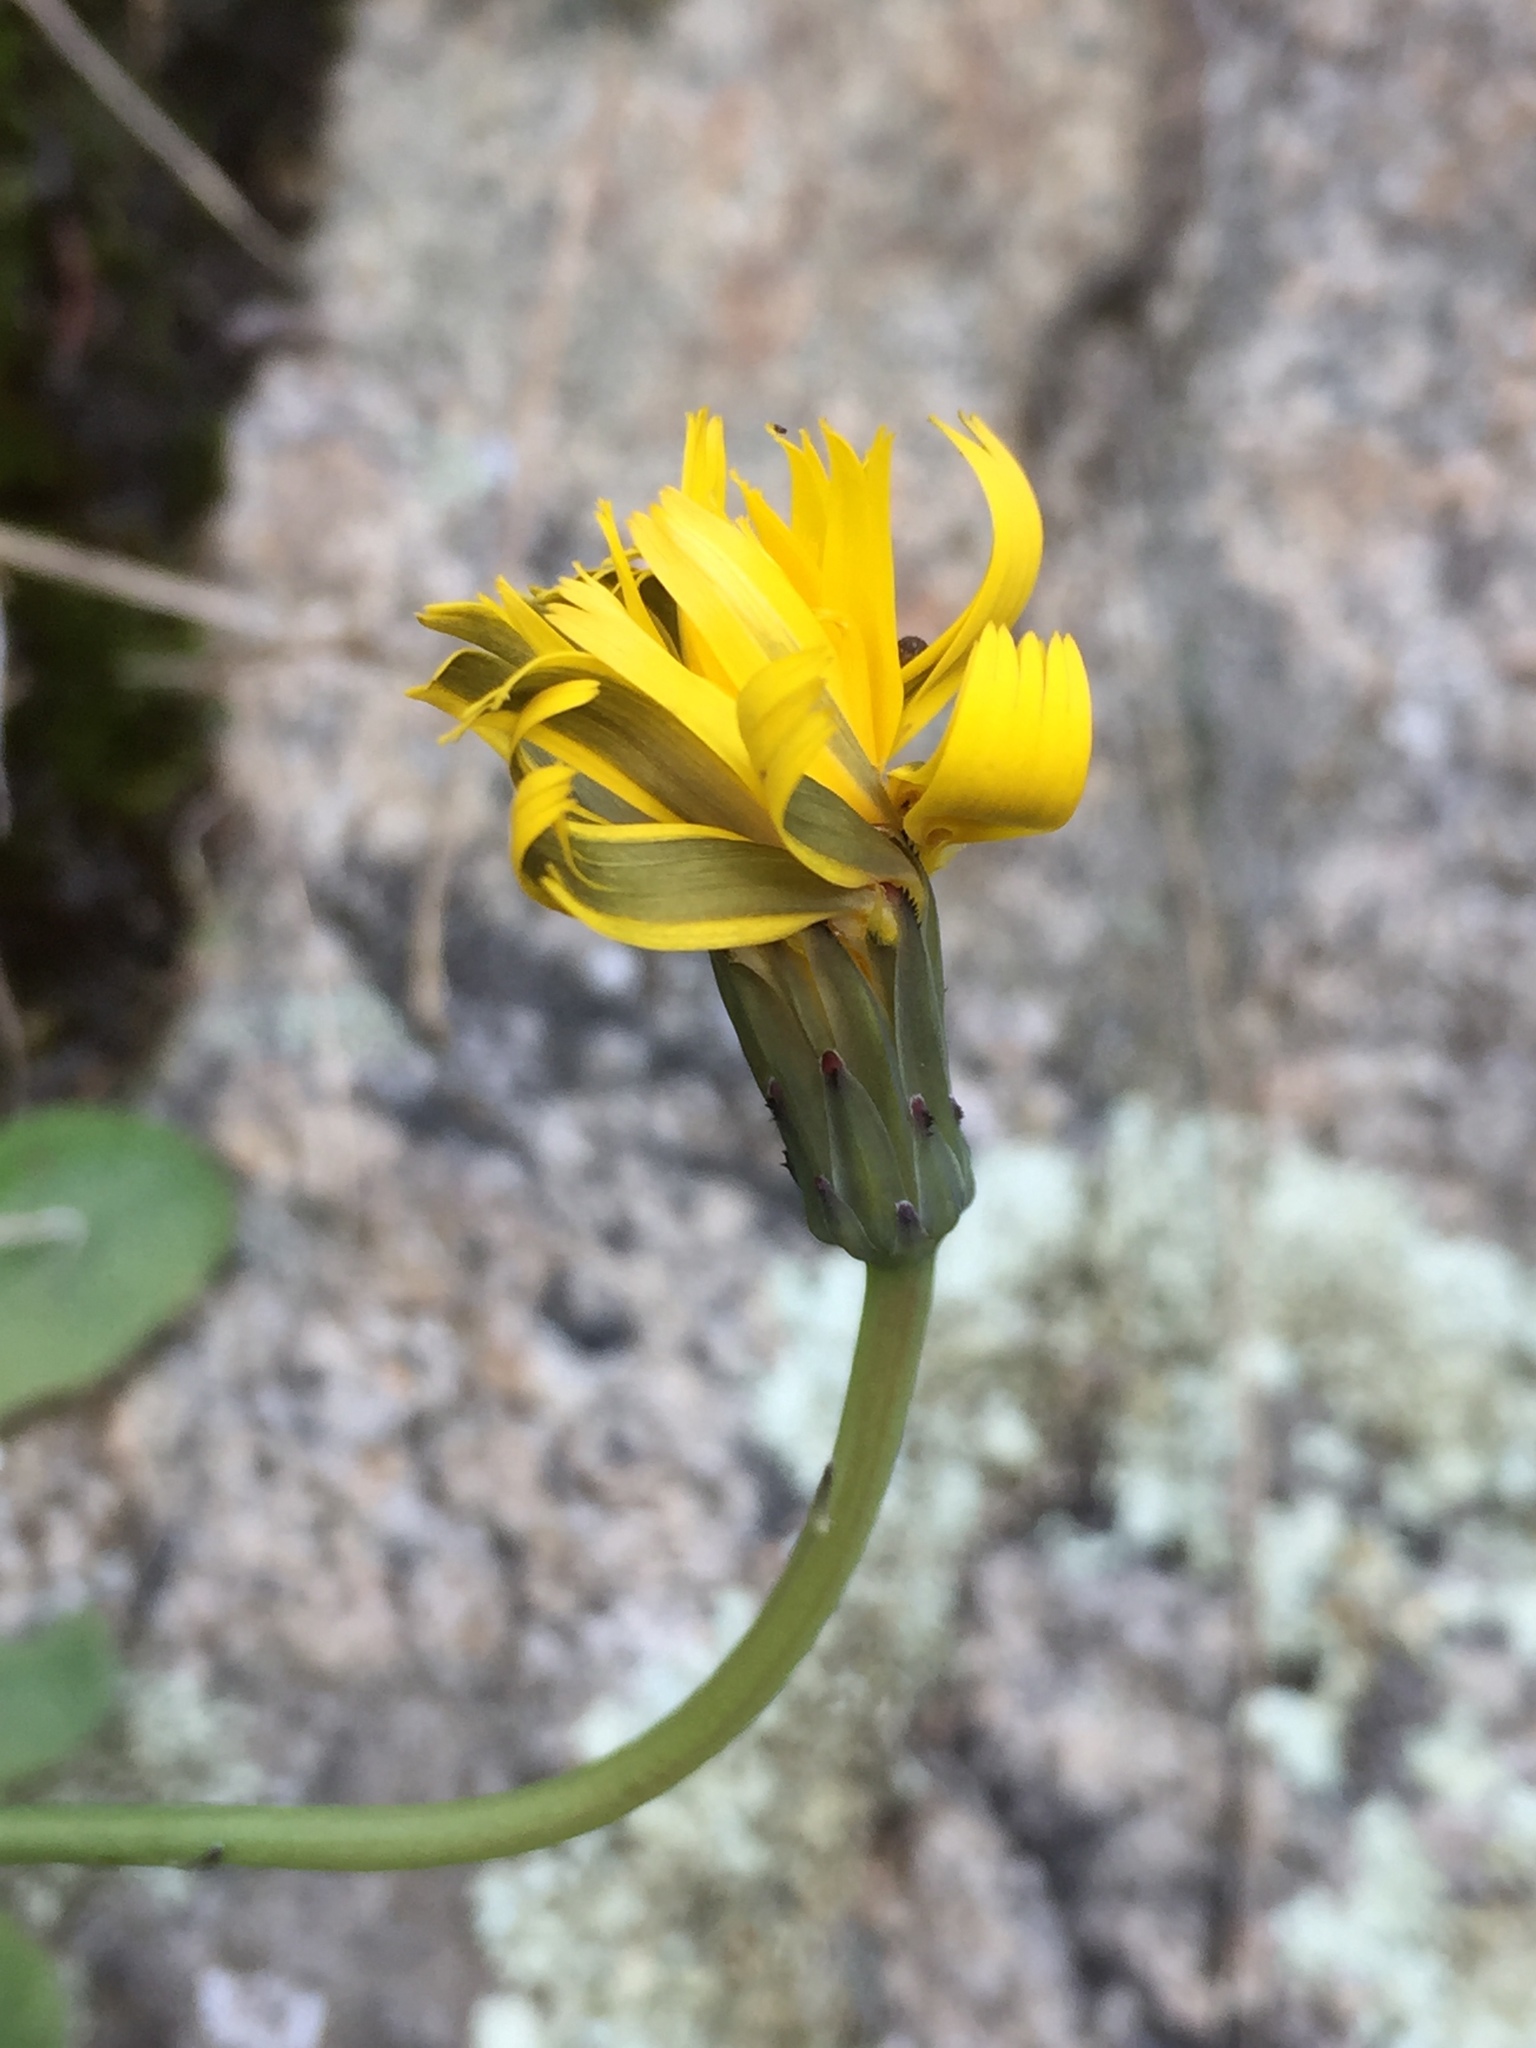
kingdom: Plantae
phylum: Tracheophyta
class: Magnoliopsida
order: Asterales
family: Asteraceae
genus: Hypochaeris
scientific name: Hypochaeris radicata
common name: Flatweed
